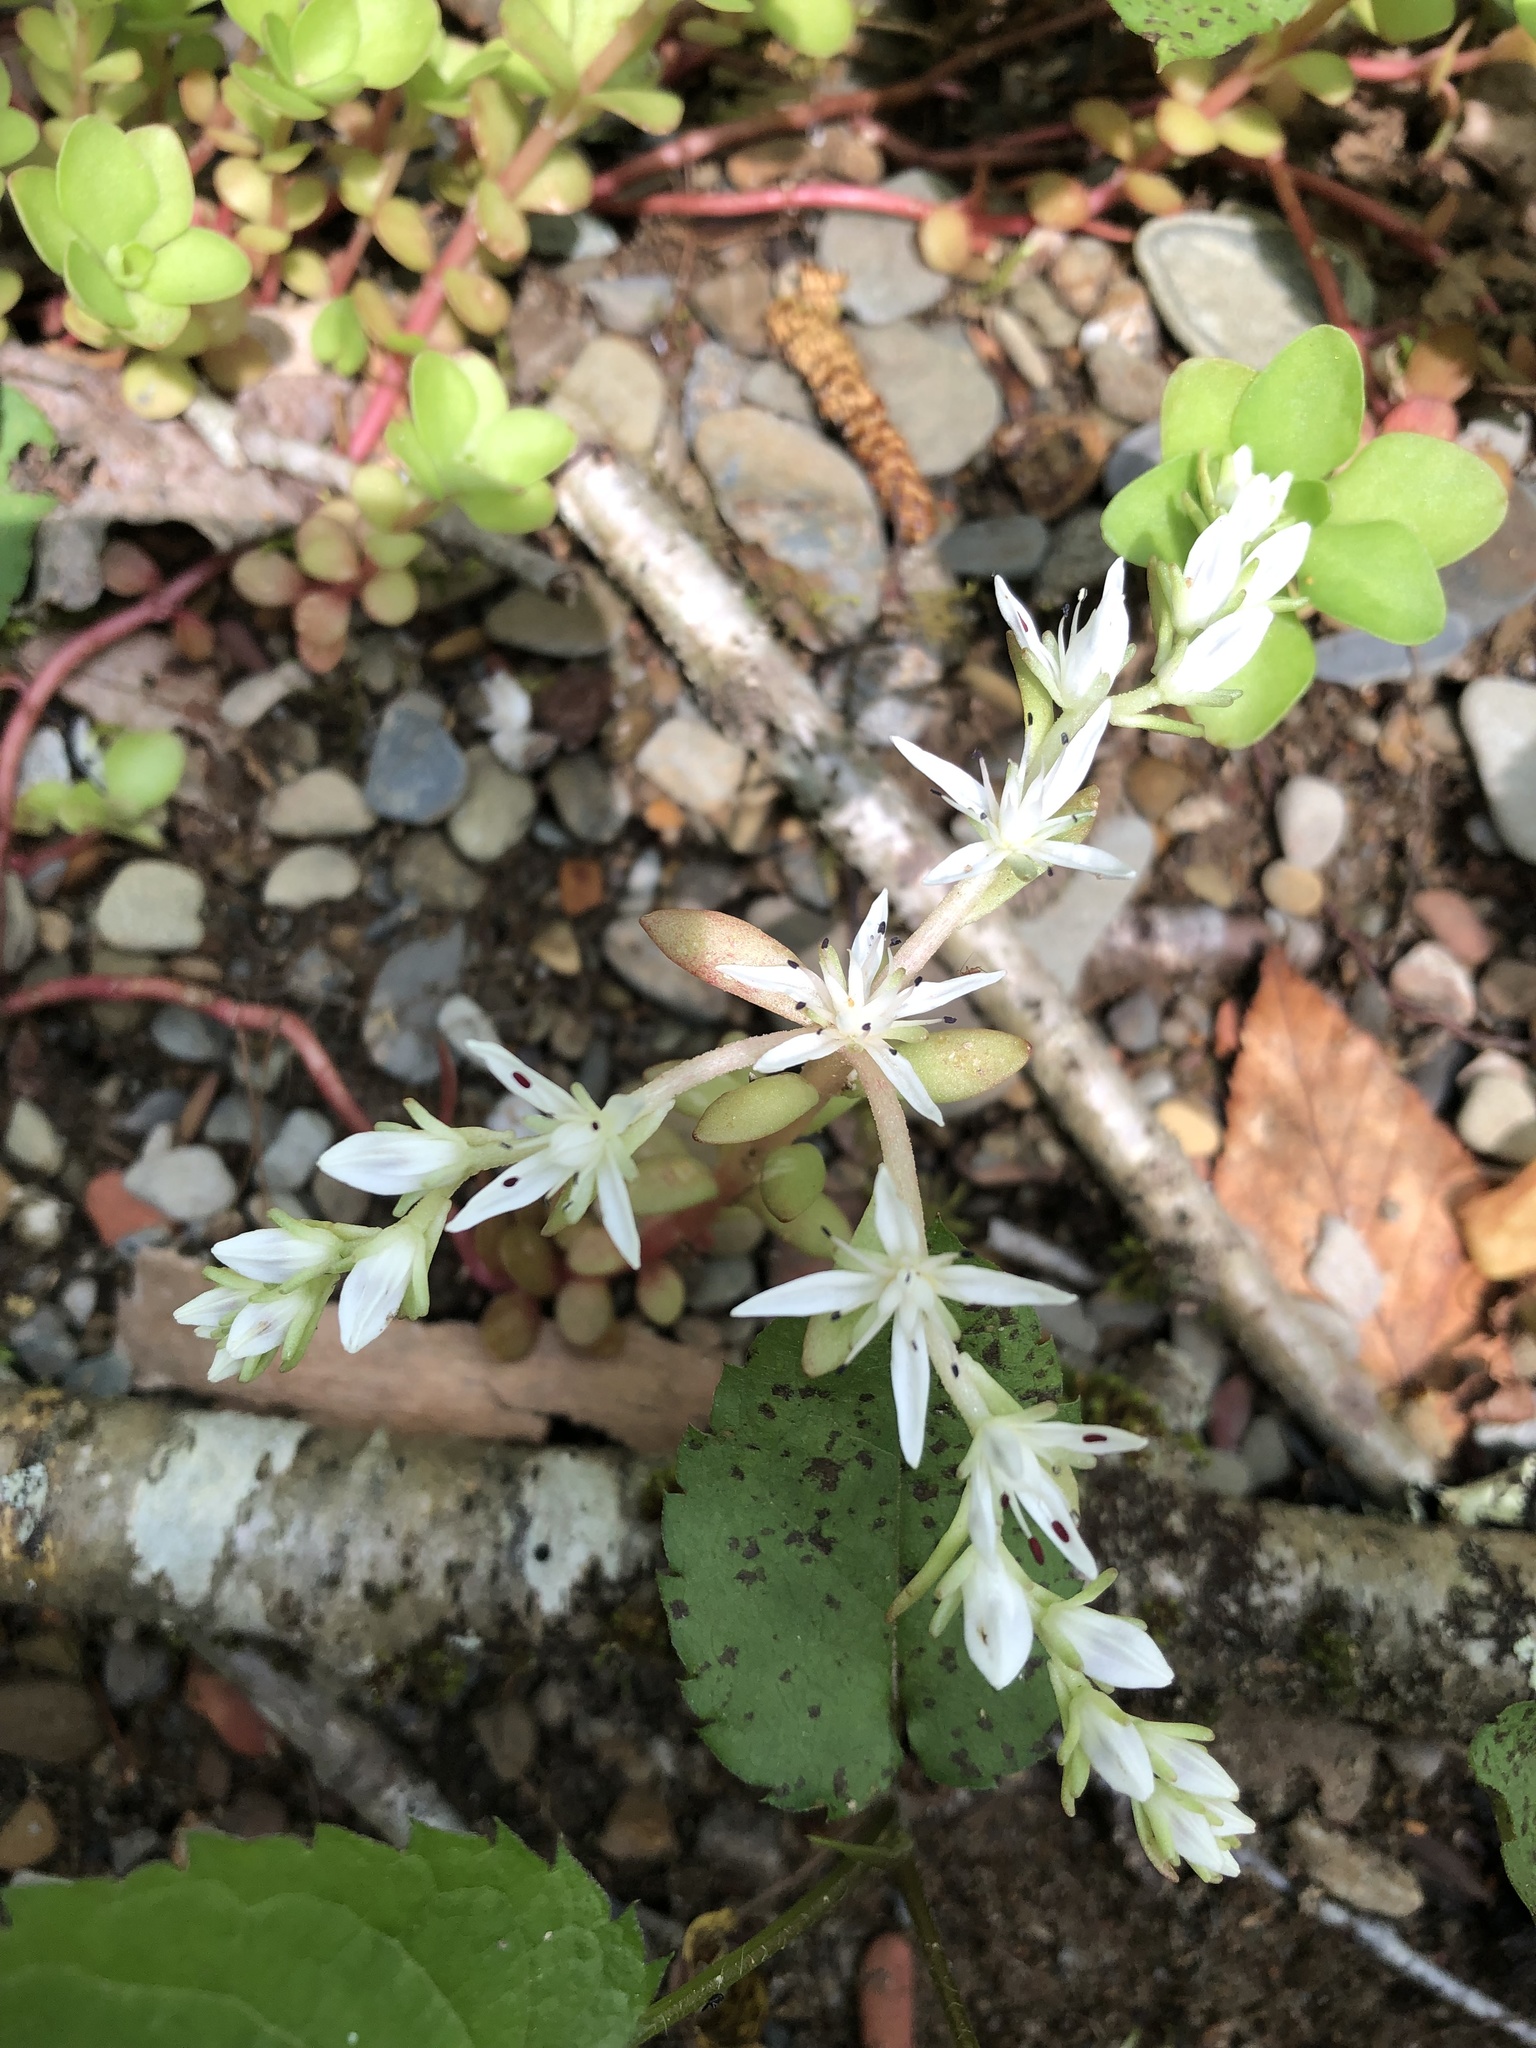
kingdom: Plantae
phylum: Tracheophyta
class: Magnoliopsida
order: Saxifragales
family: Crassulaceae
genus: Sedum
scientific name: Sedum ternatum
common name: Wild stonecrop
